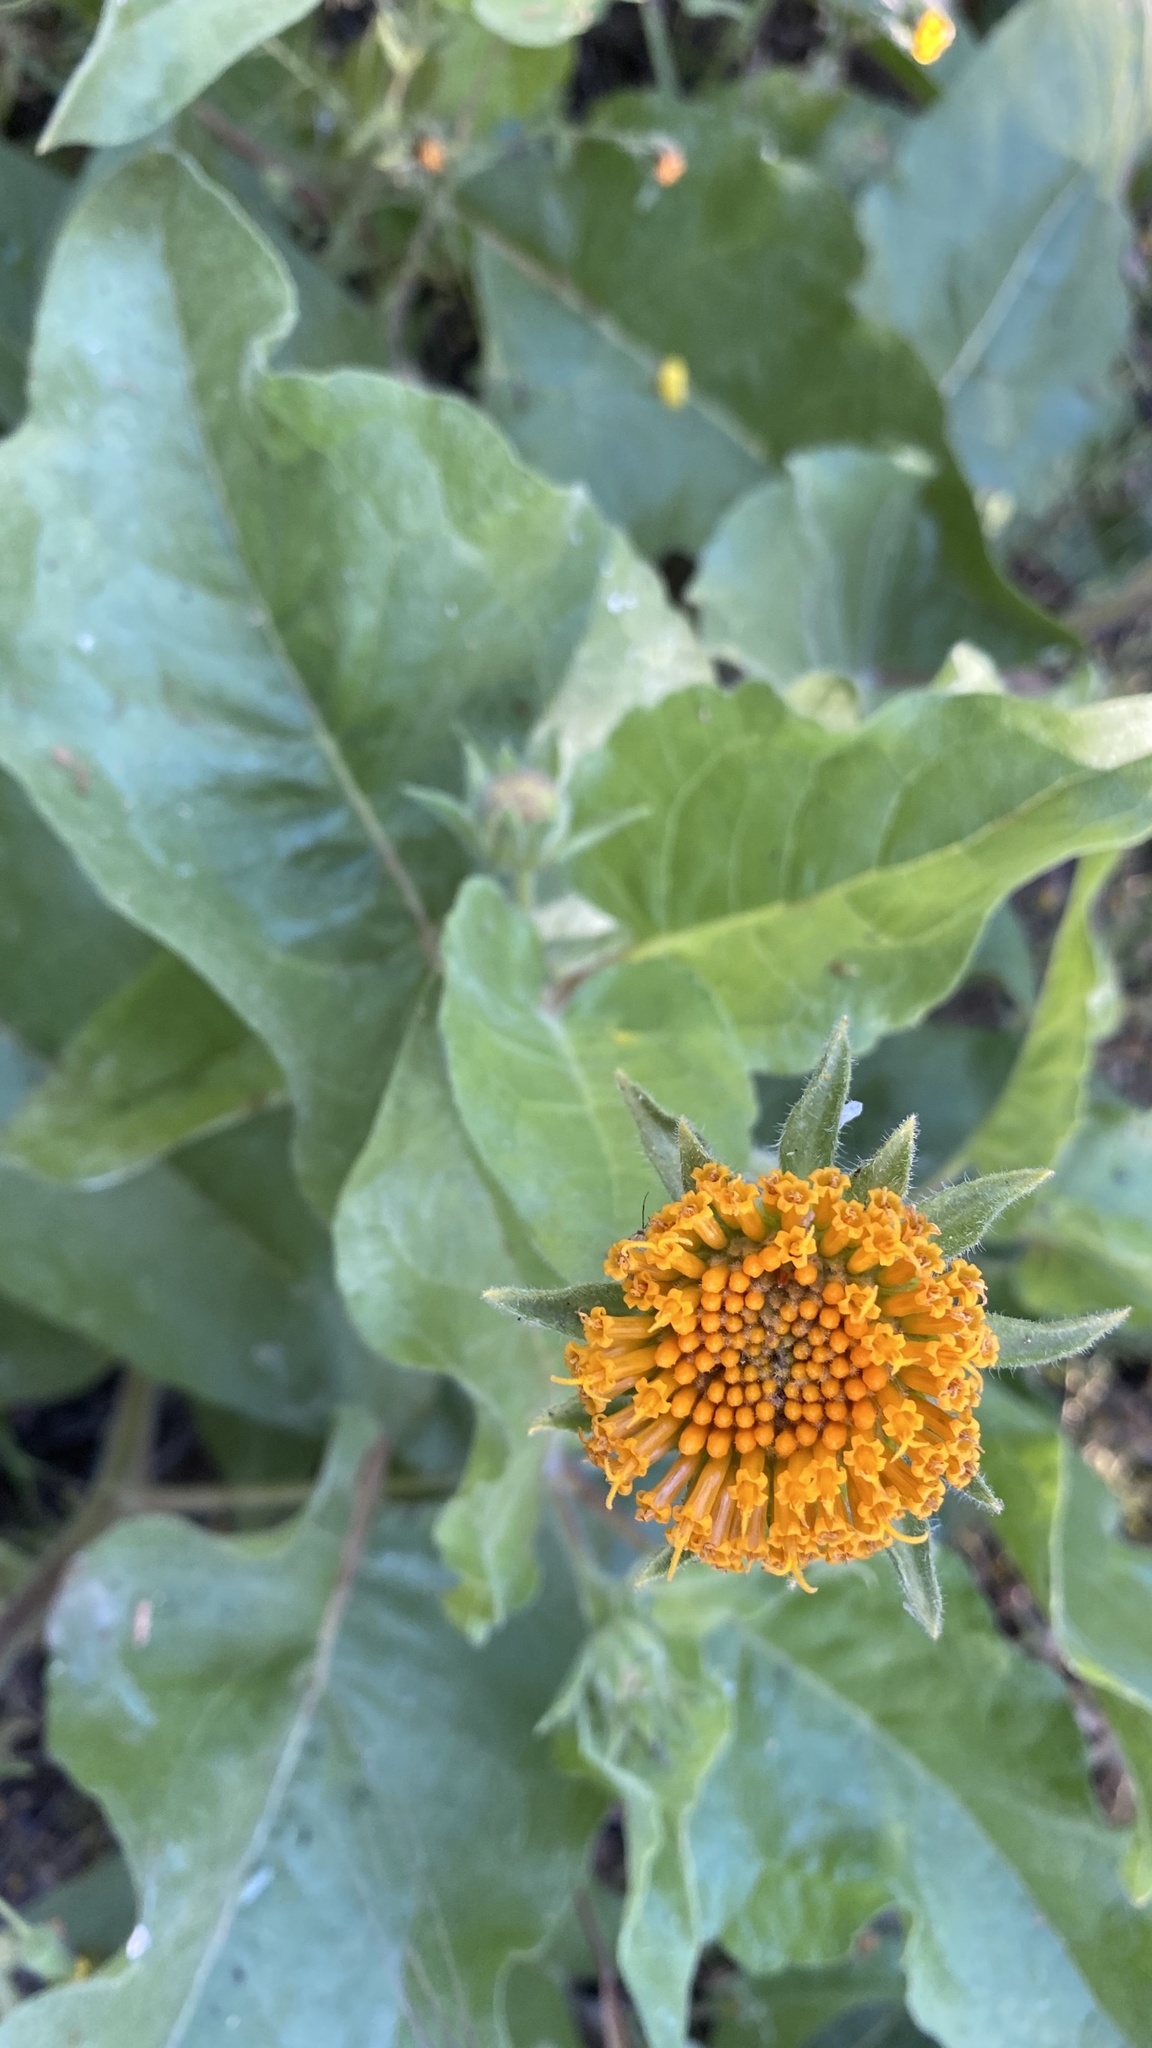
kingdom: Plantae
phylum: Tracheophyta
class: Magnoliopsida
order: Asterales
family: Asteraceae
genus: Agnorhiza
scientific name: Agnorhiza invenusta
